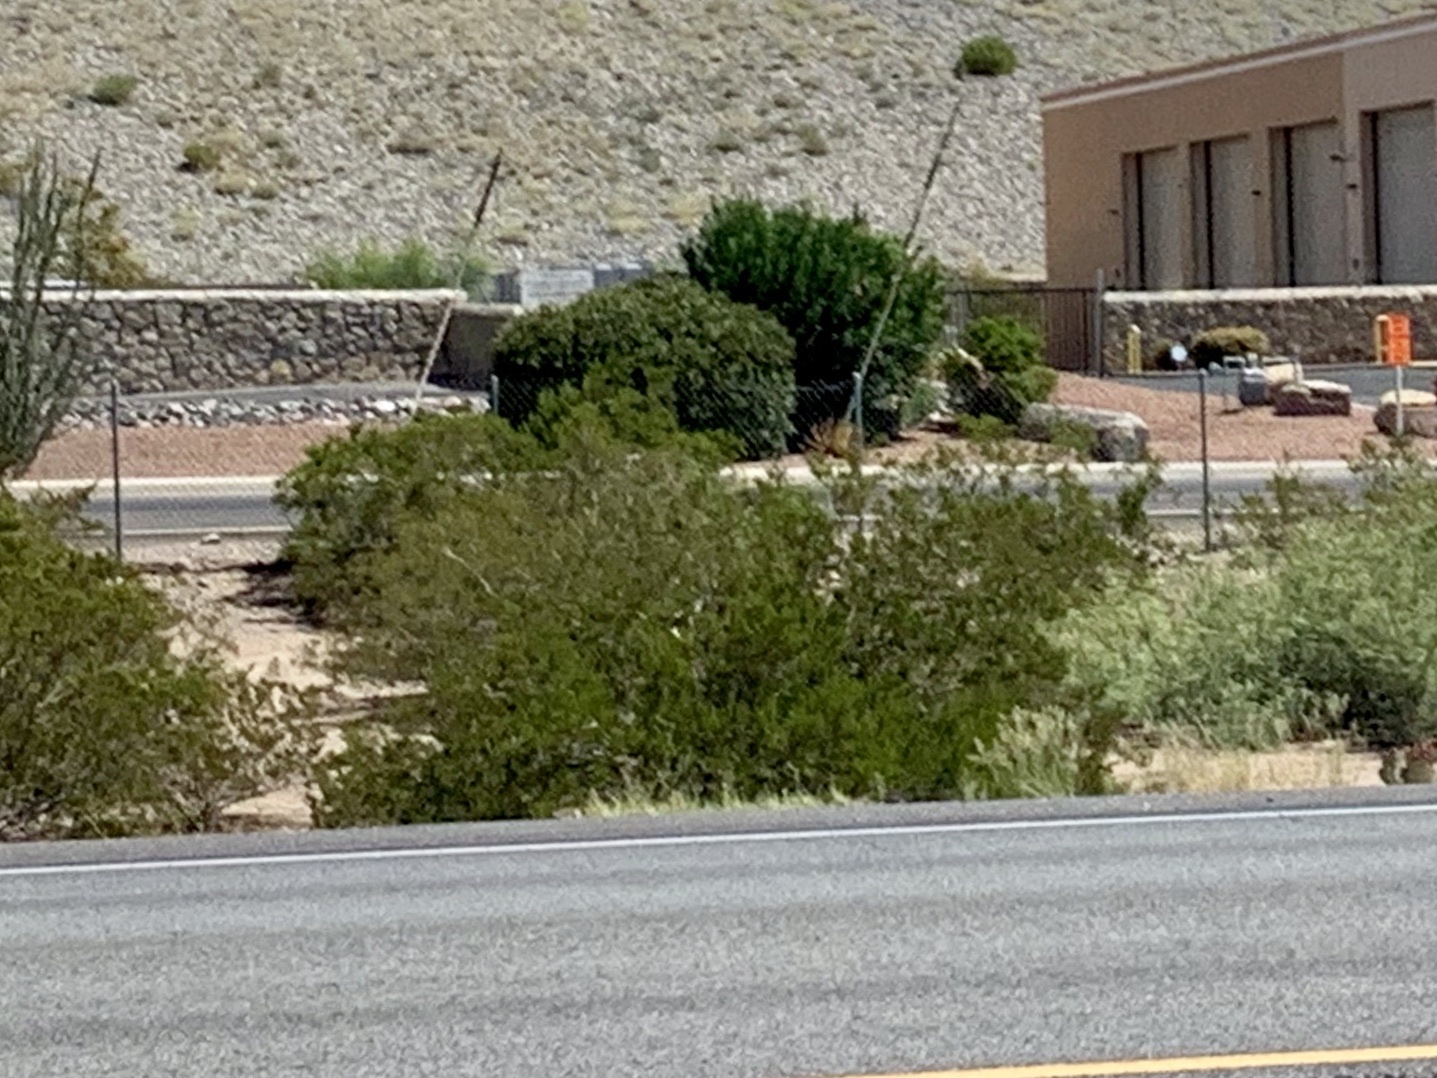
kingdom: Plantae
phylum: Tracheophyta
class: Magnoliopsida
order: Zygophyllales
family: Zygophyllaceae
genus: Larrea
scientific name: Larrea tridentata
